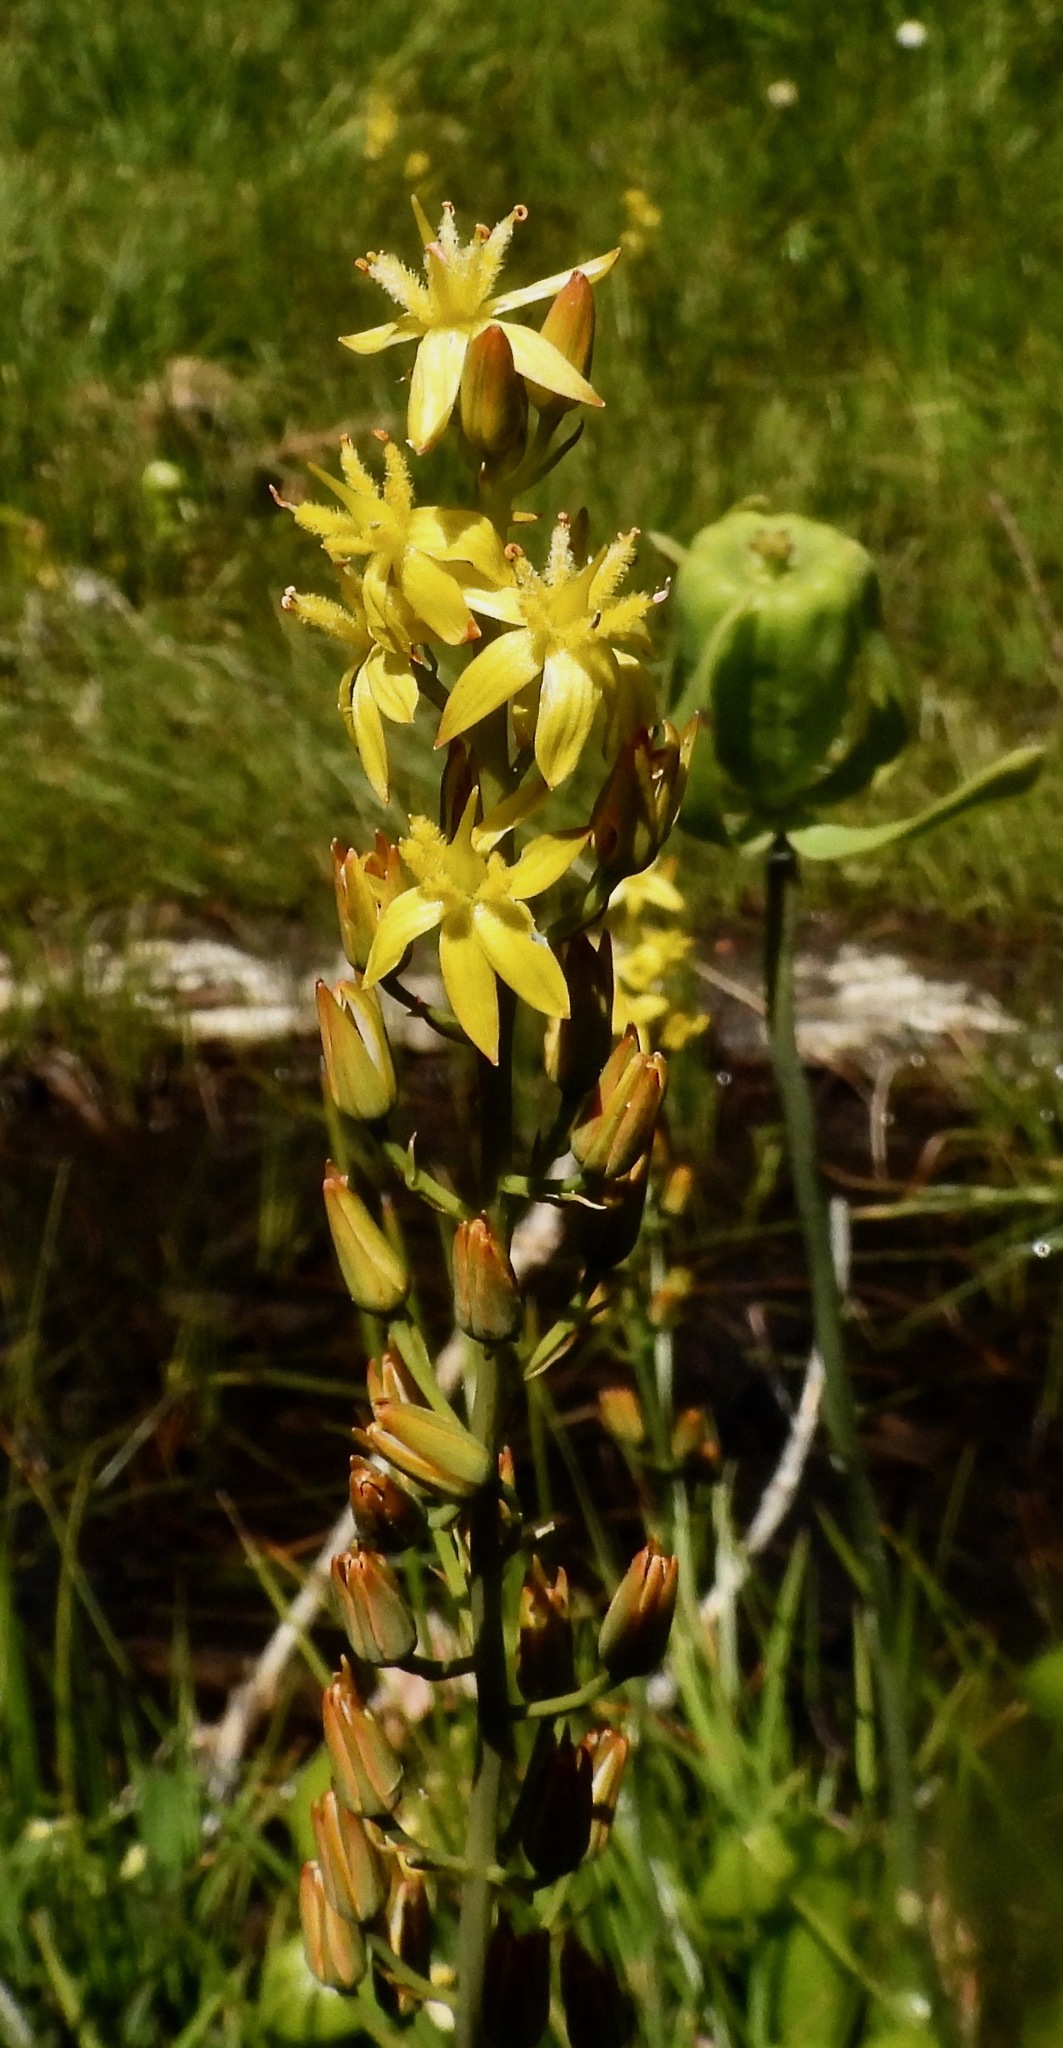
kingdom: Plantae
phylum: Tracheophyta
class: Liliopsida
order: Dioscoreales
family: Nartheciaceae
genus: Narthecium
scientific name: Narthecium californicum
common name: California bog-asphodel
